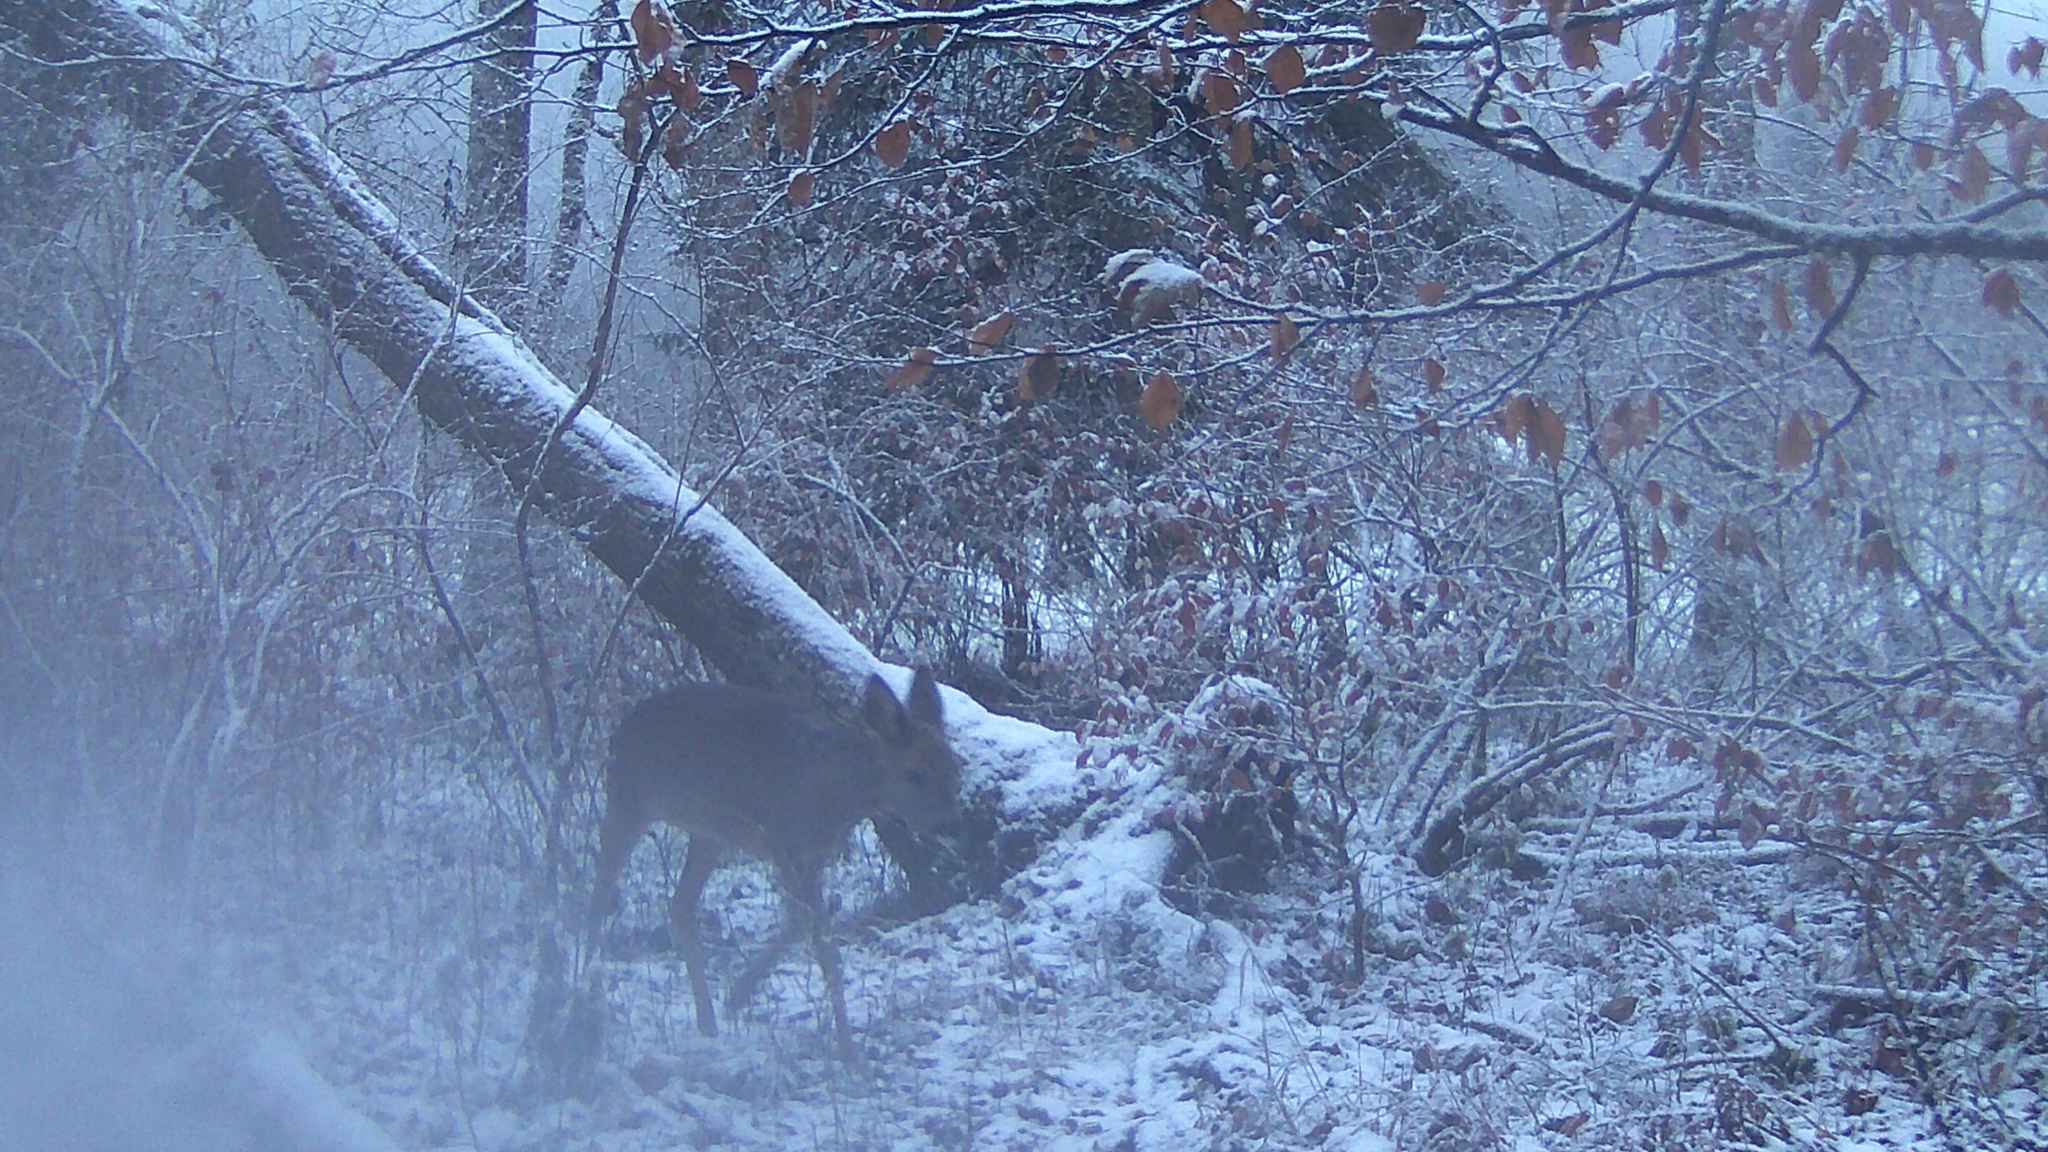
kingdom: Animalia
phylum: Chordata
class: Mammalia
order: Artiodactyla
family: Cervidae
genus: Capreolus
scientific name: Capreolus capreolus
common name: Western roe deer
